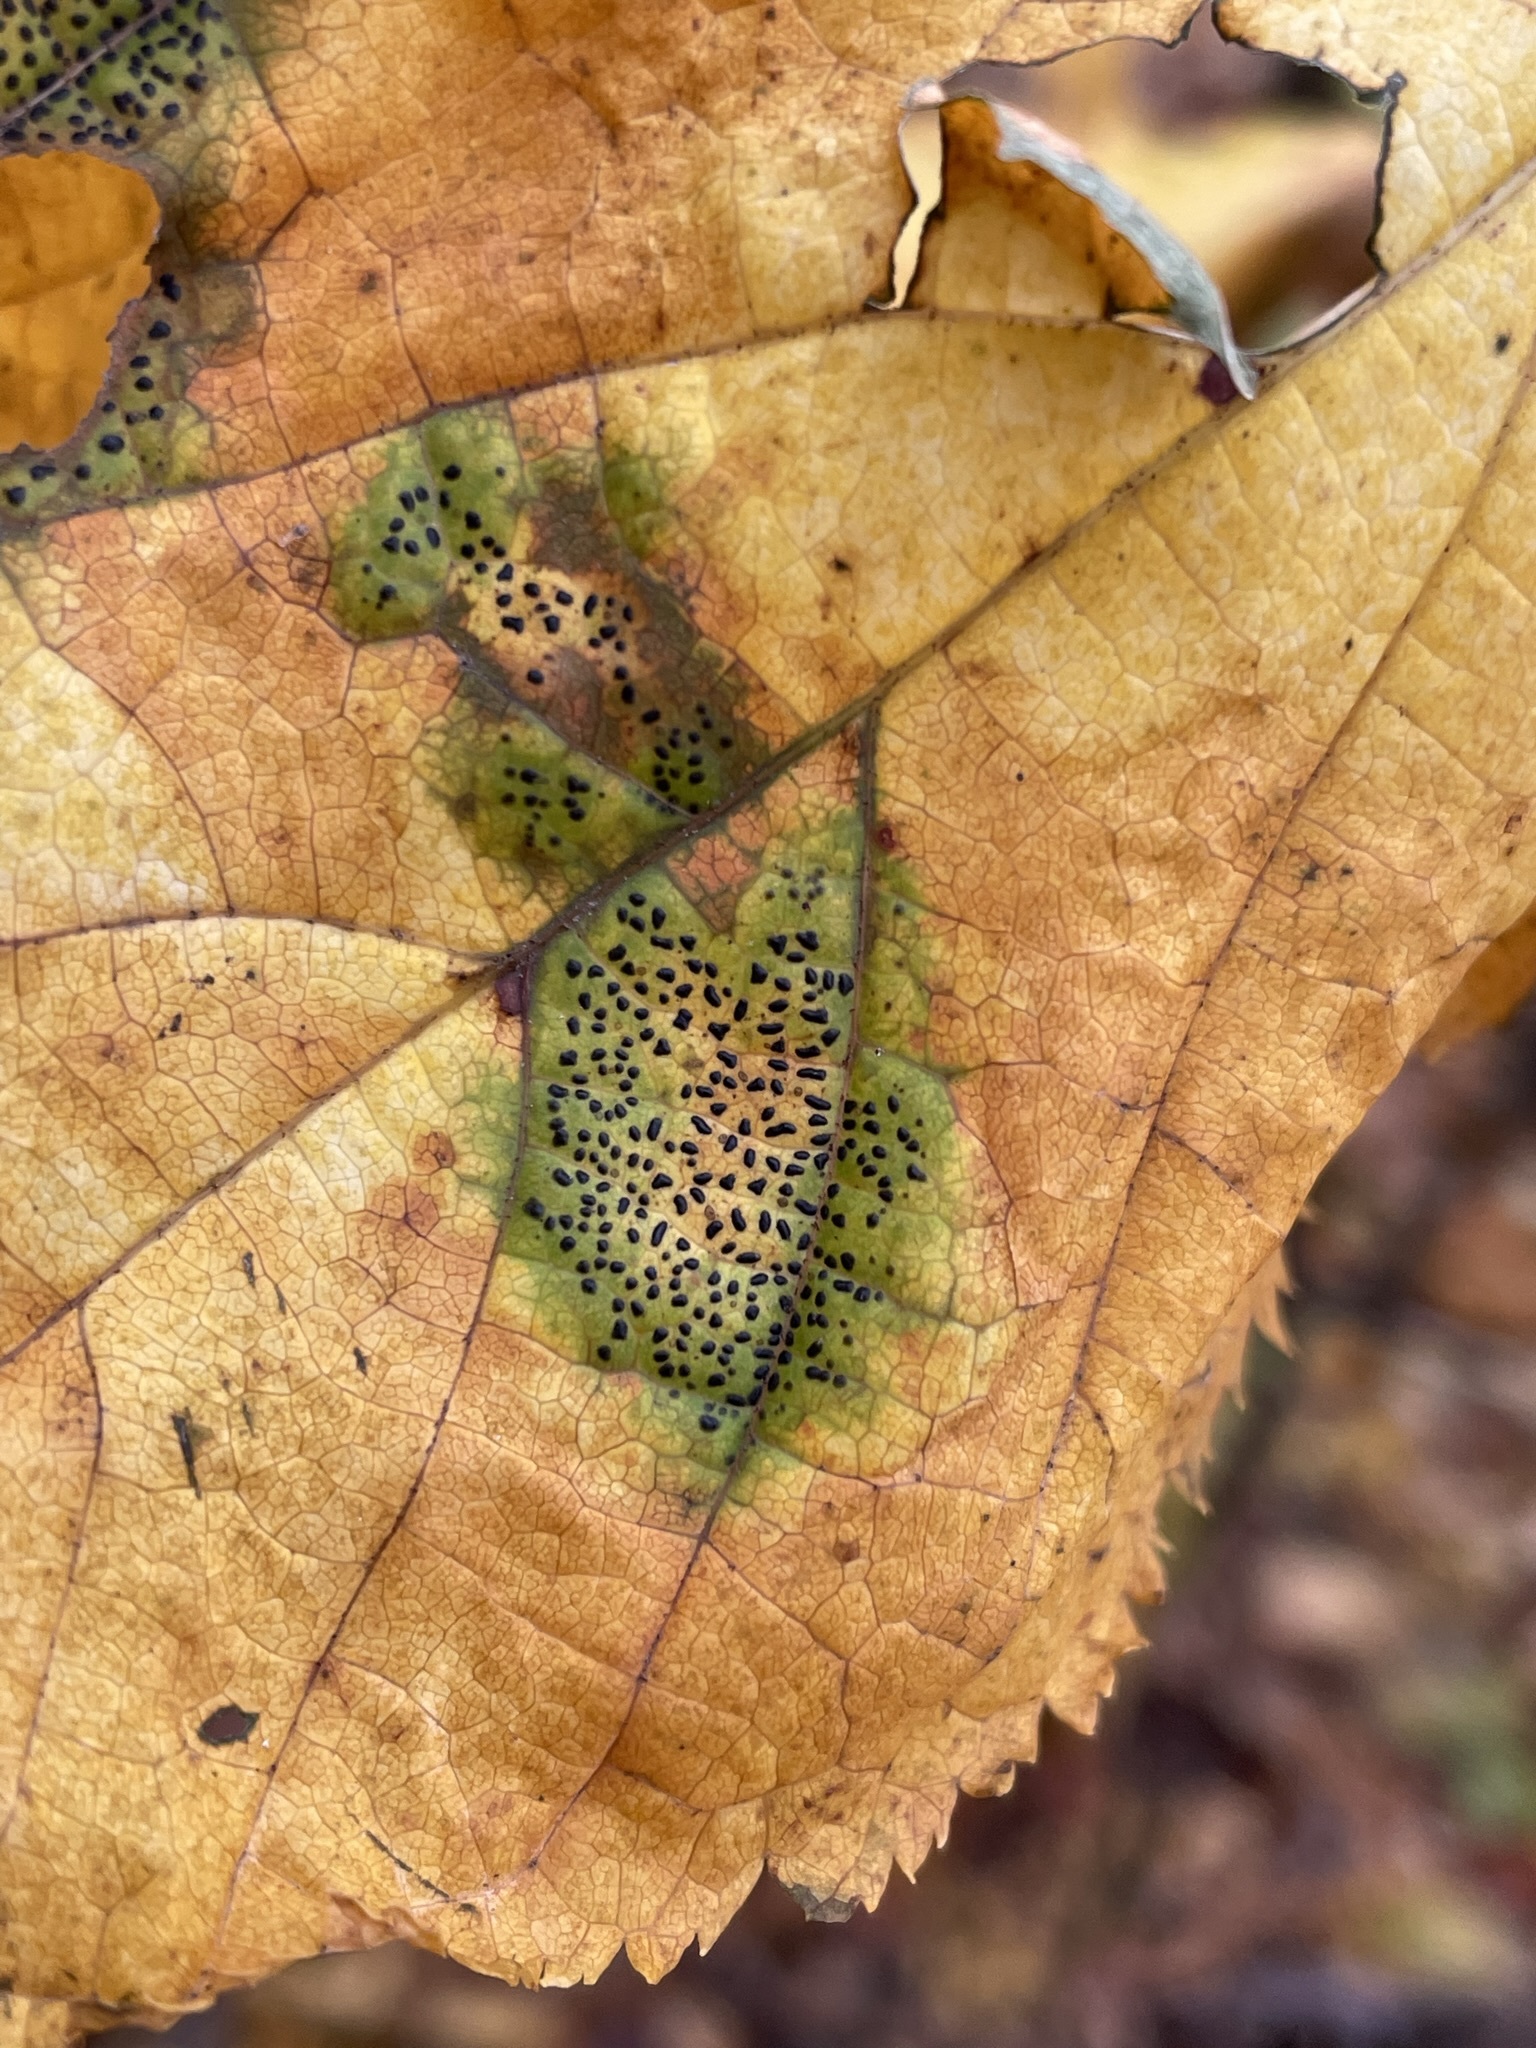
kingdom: Fungi
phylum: Ascomycota
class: Leotiomycetes
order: Rhytismatales
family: Rhytismataceae
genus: Rhytisma
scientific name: Rhytisma punctatum
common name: Speckled tar spot
